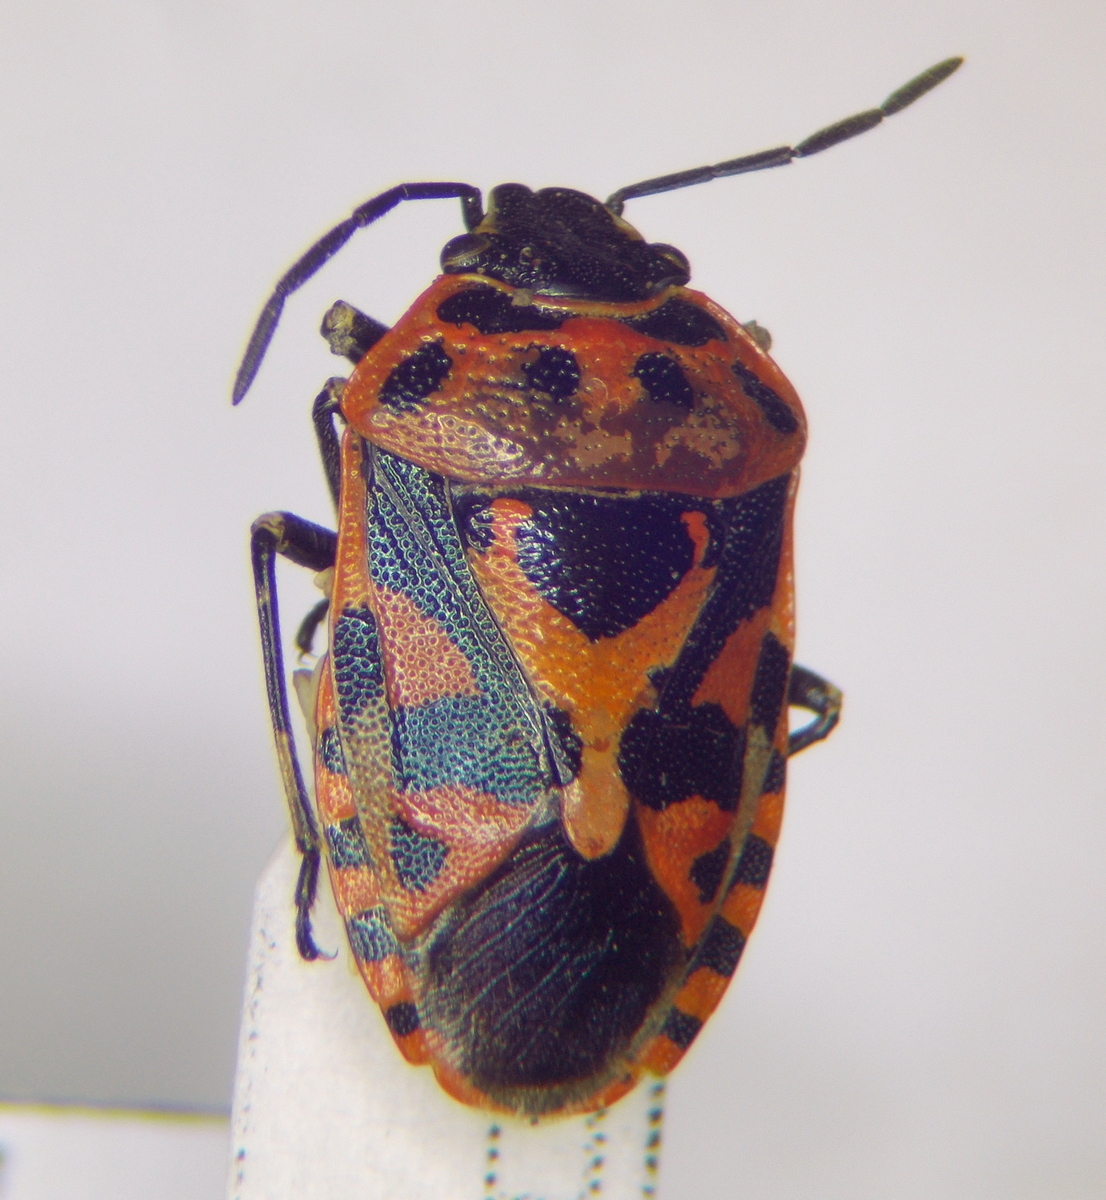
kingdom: Animalia
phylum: Arthropoda
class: Insecta
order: Hemiptera
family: Pentatomidae
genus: Eurydema
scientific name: Eurydema ornata
